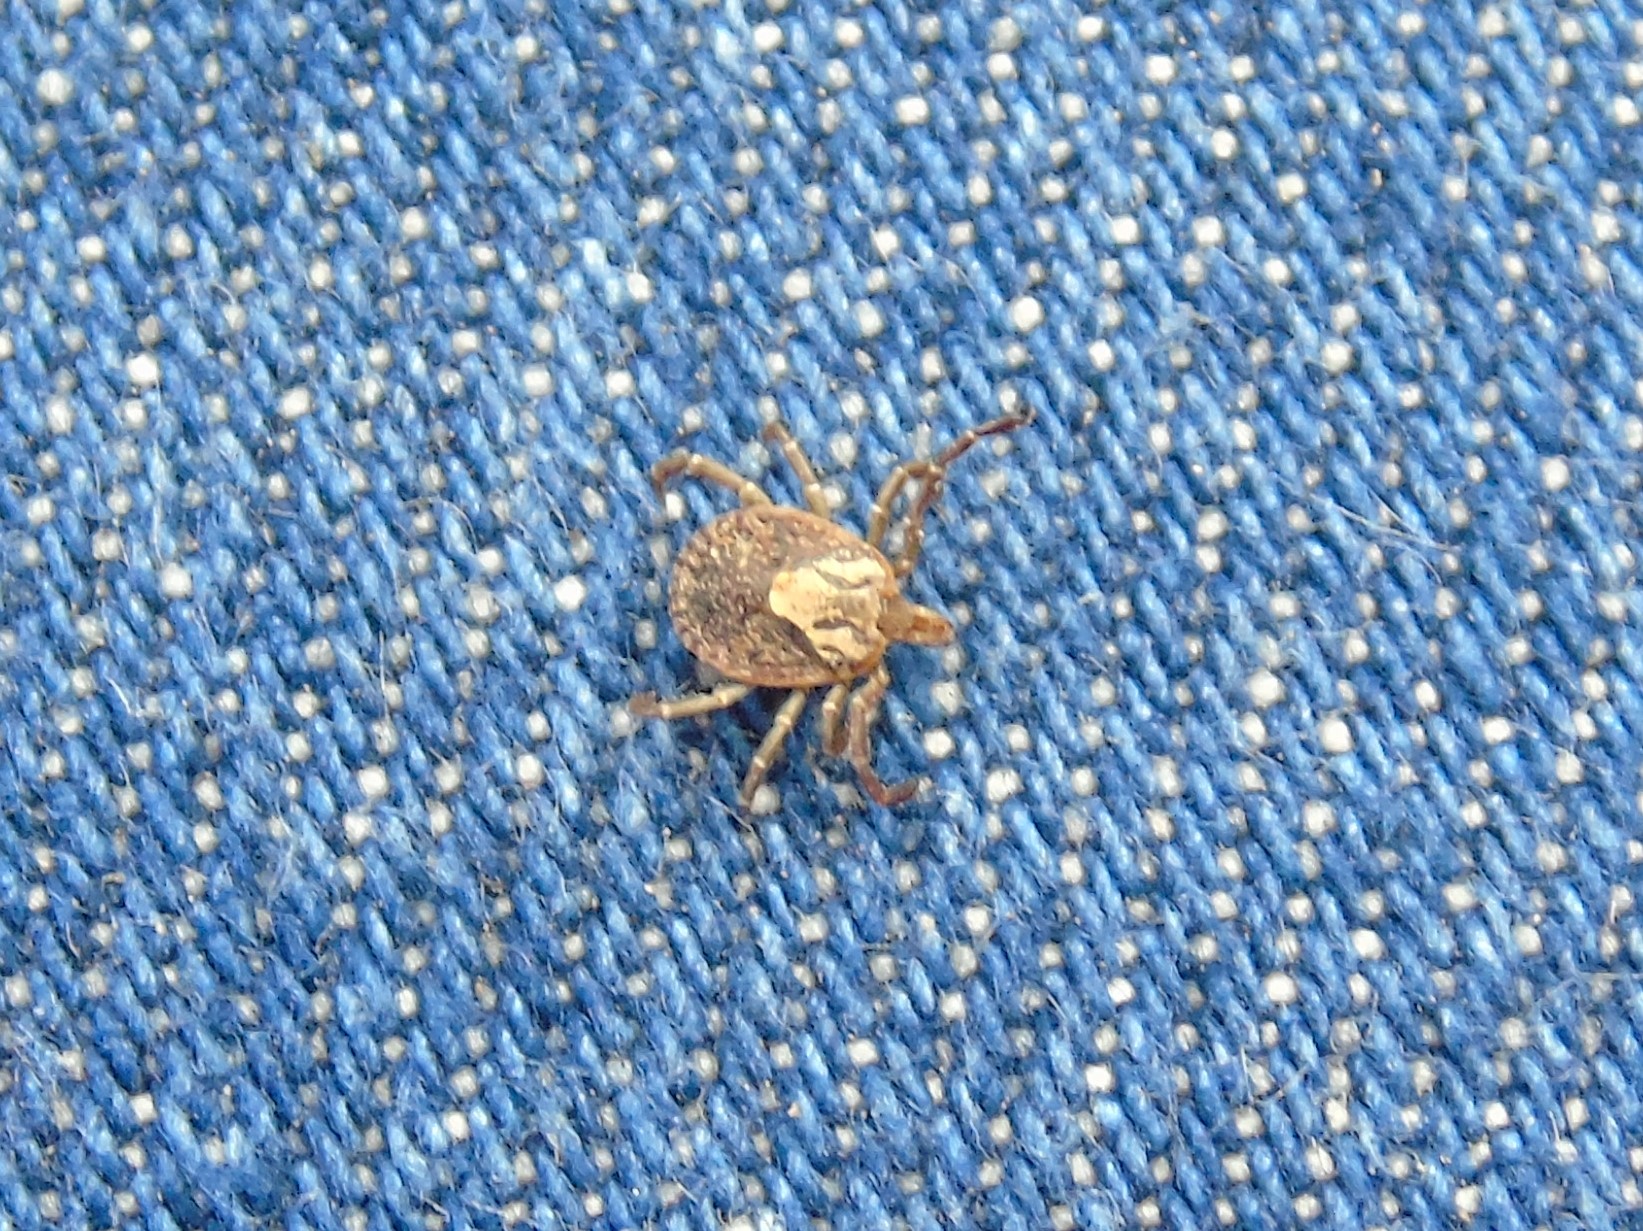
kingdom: Animalia
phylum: Arthropoda
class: Arachnida
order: Ixodida
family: Ixodidae
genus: Amblyomma
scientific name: Amblyomma
